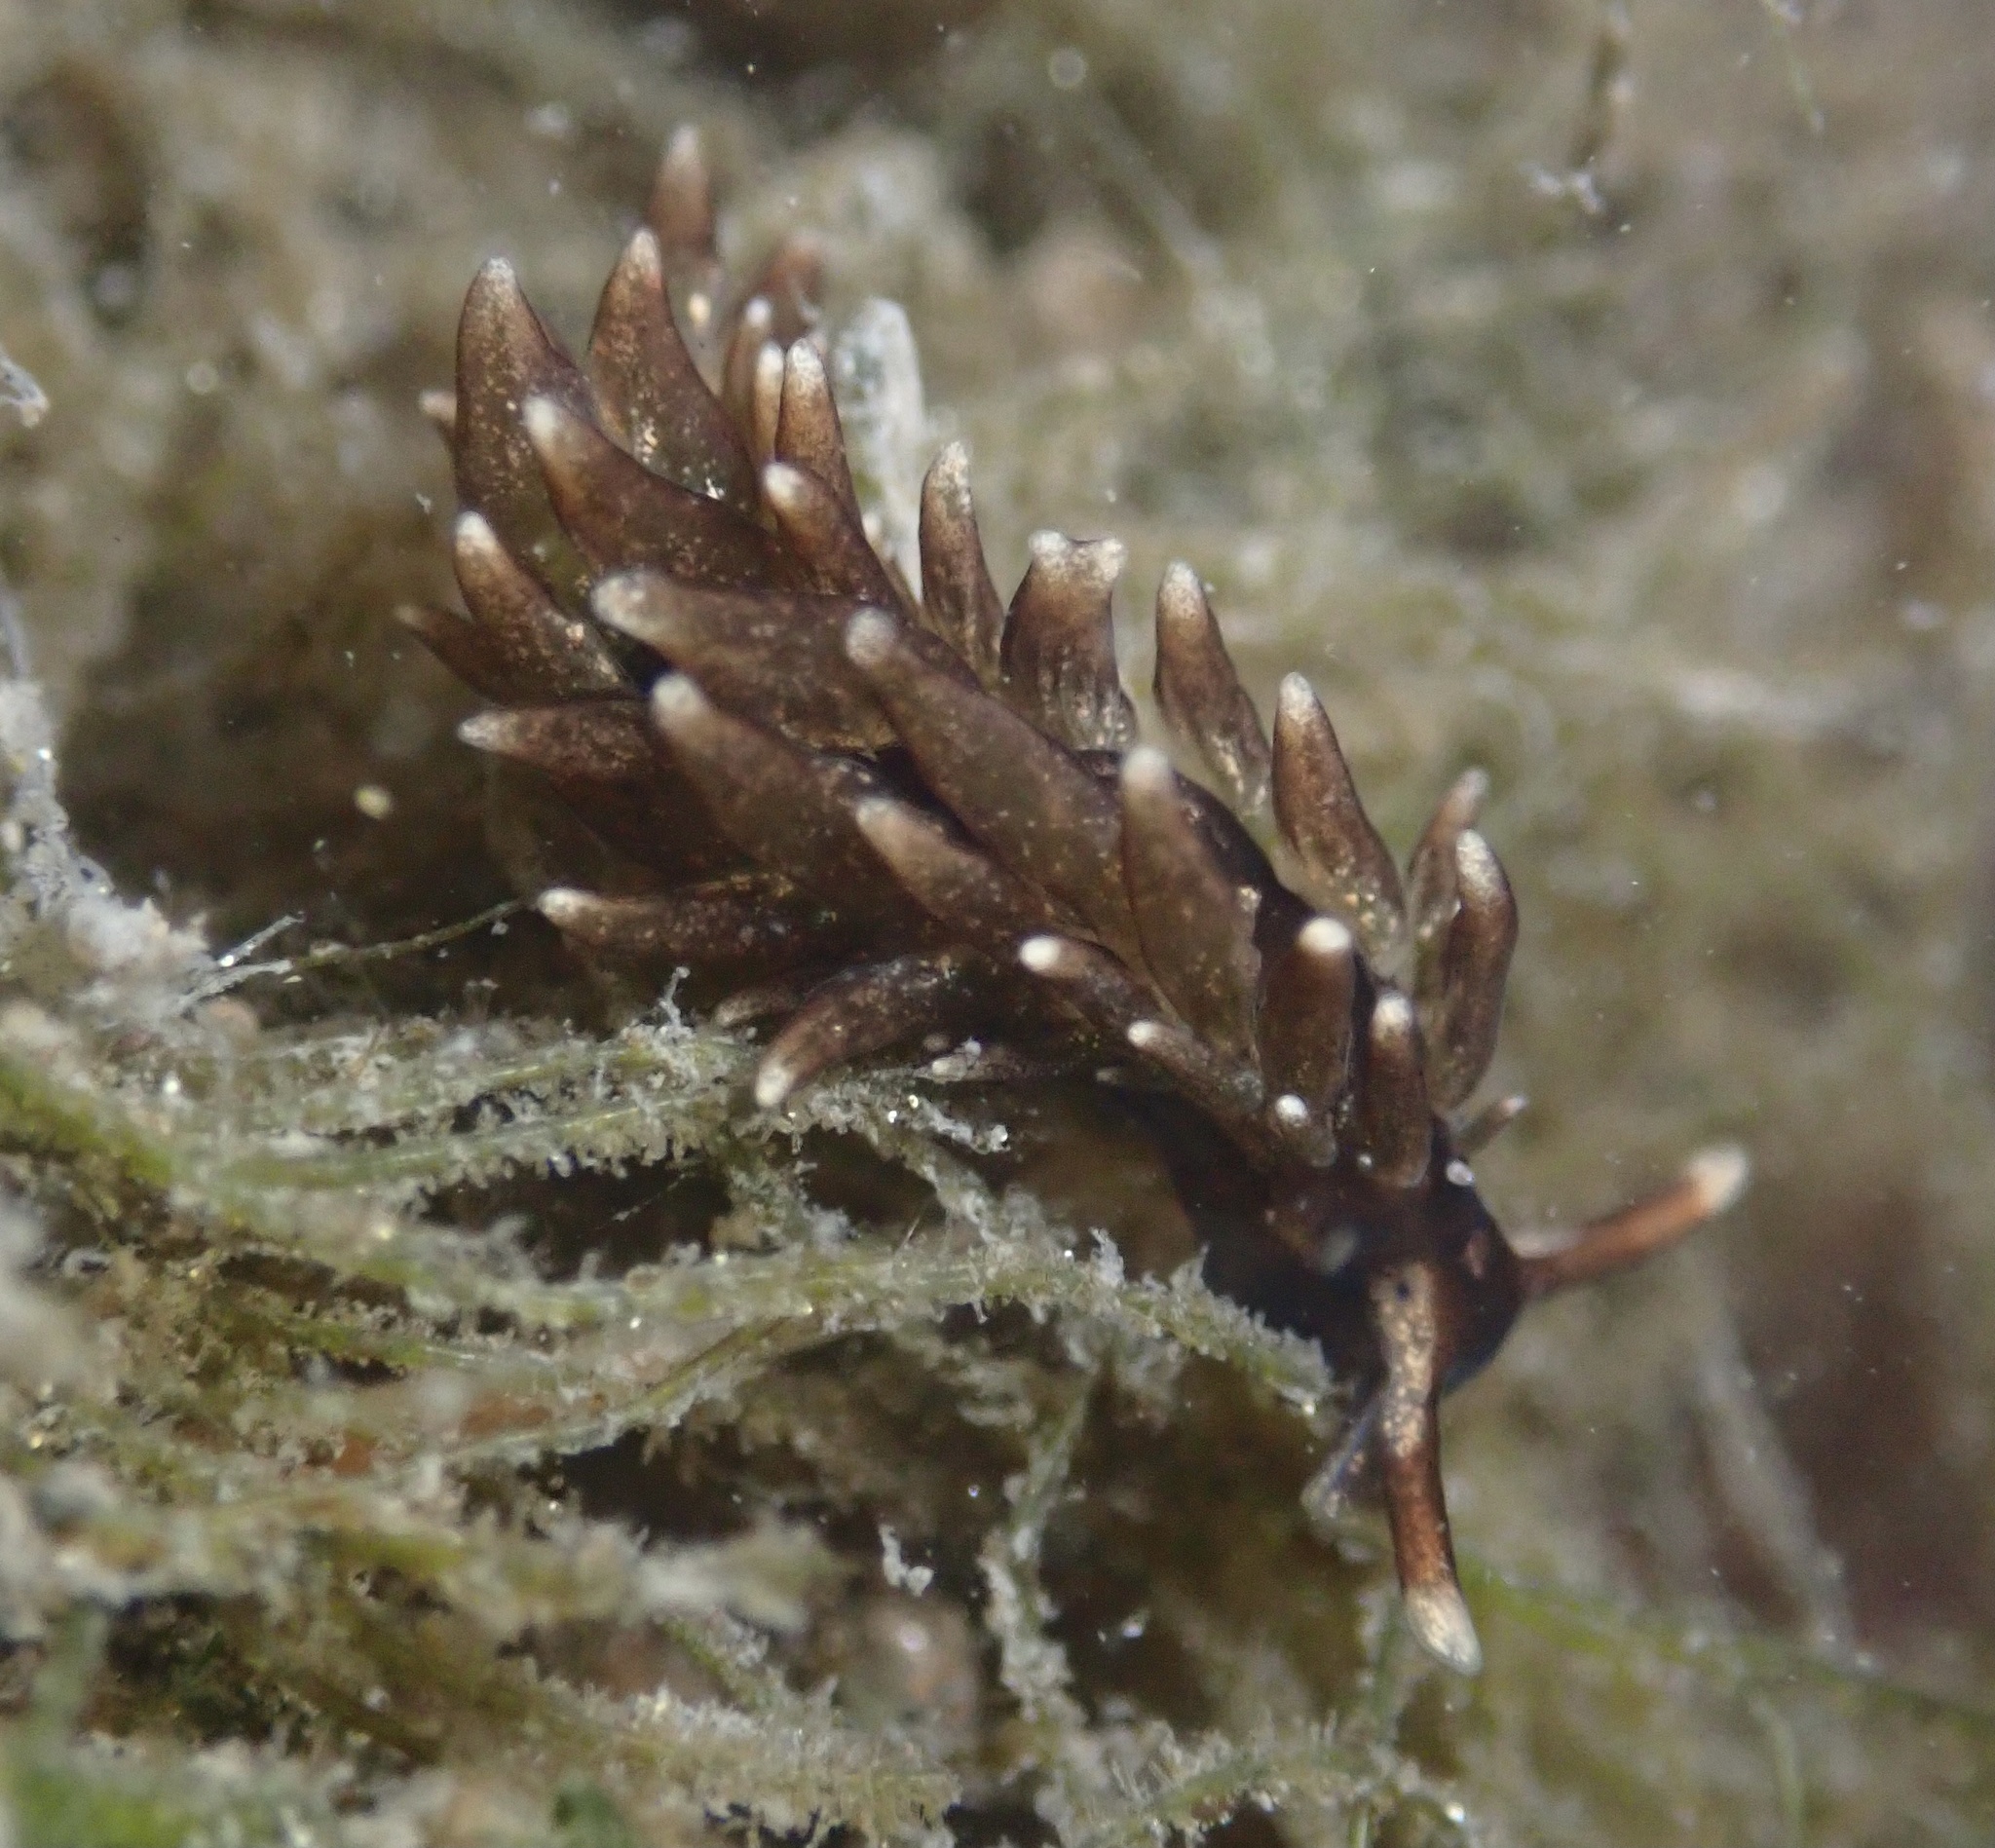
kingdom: Animalia
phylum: Mollusca
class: Gastropoda
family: Hermaeidae
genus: Aplysiopsis
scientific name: Aplysiopsis enteromorphae
